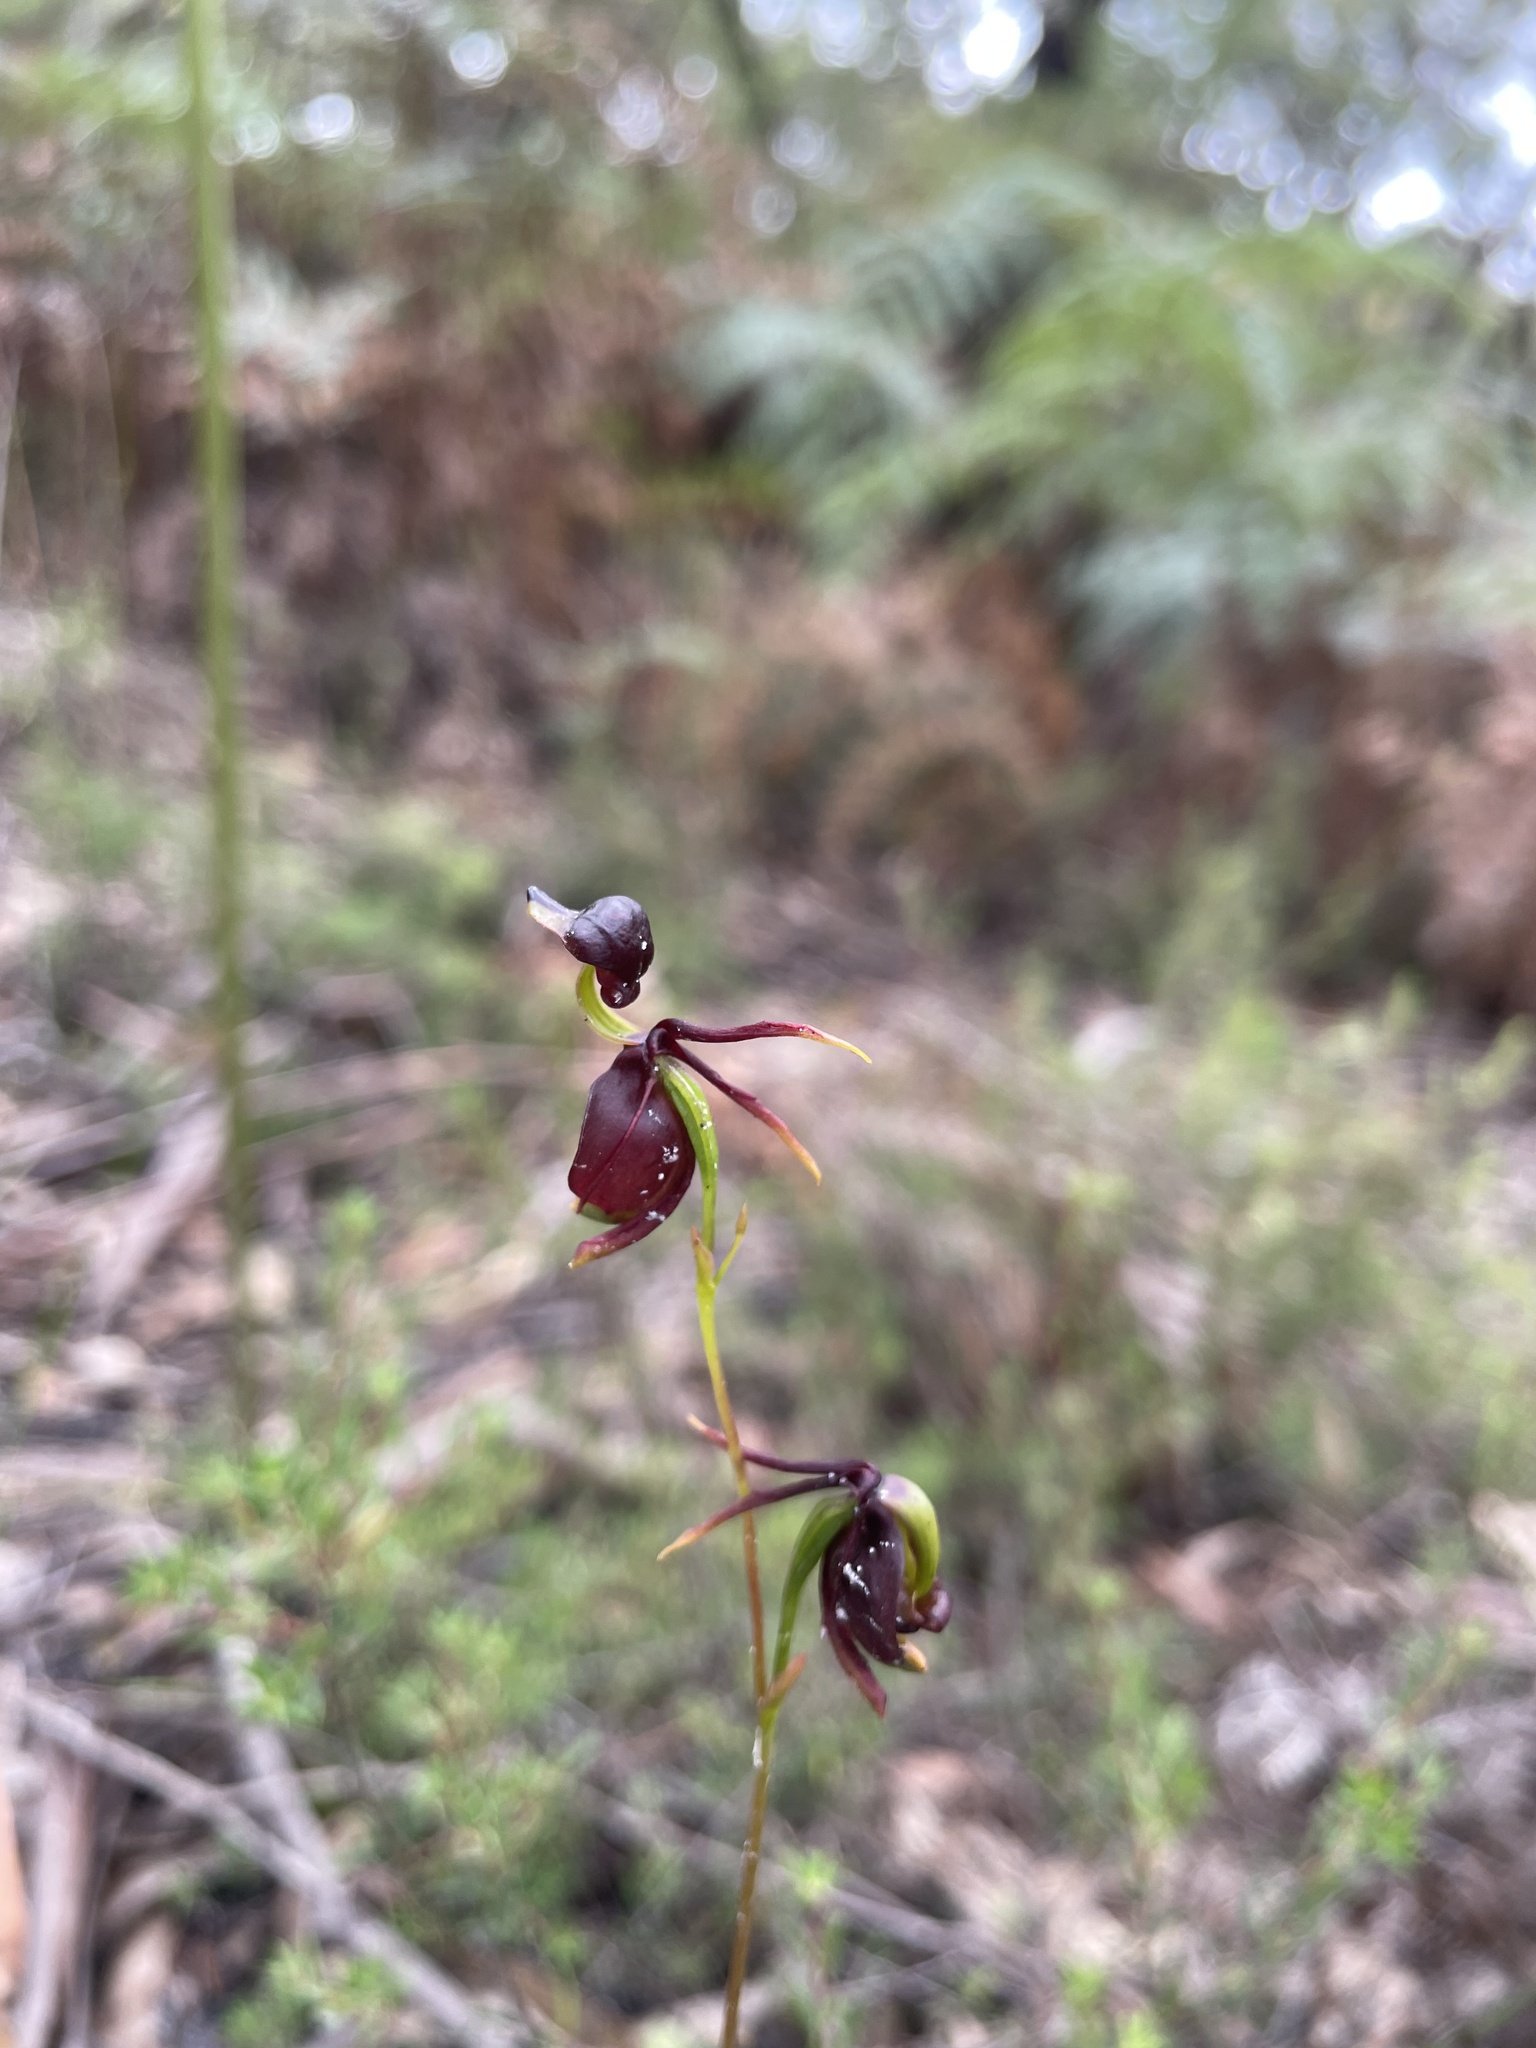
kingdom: Plantae
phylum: Tracheophyta
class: Liliopsida
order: Asparagales
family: Orchidaceae
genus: Caleana
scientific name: Caleana major
